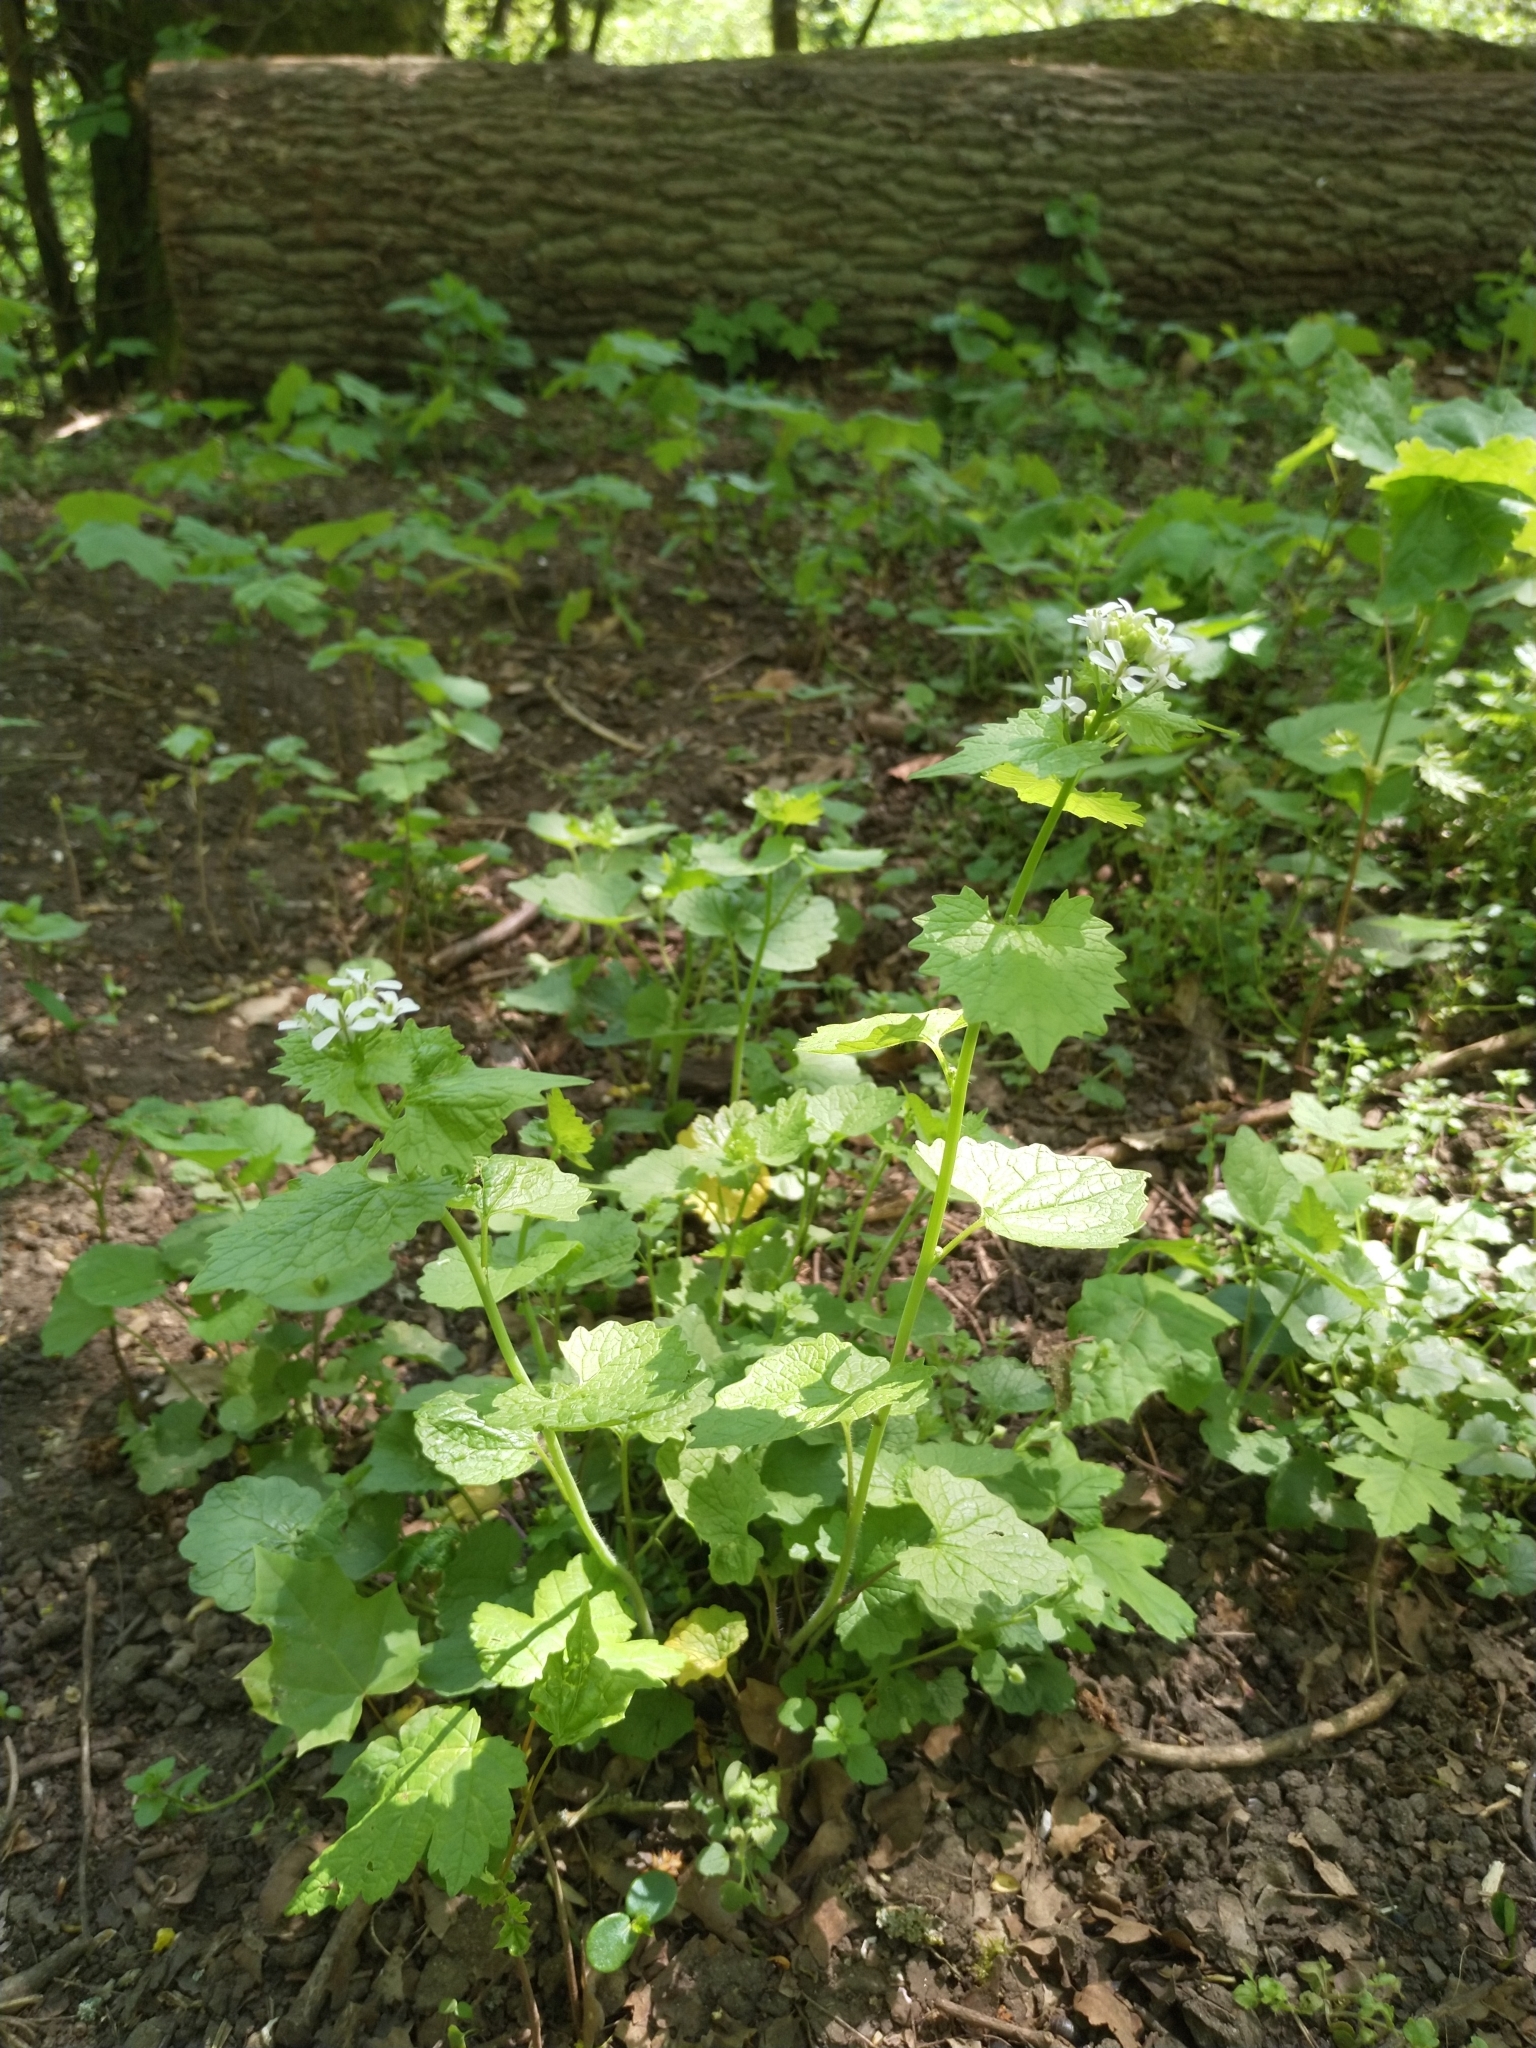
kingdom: Plantae
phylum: Tracheophyta
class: Magnoliopsida
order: Brassicales
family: Brassicaceae
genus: Alliaria
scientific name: Alliaria petiolata
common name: Garlic mustard
